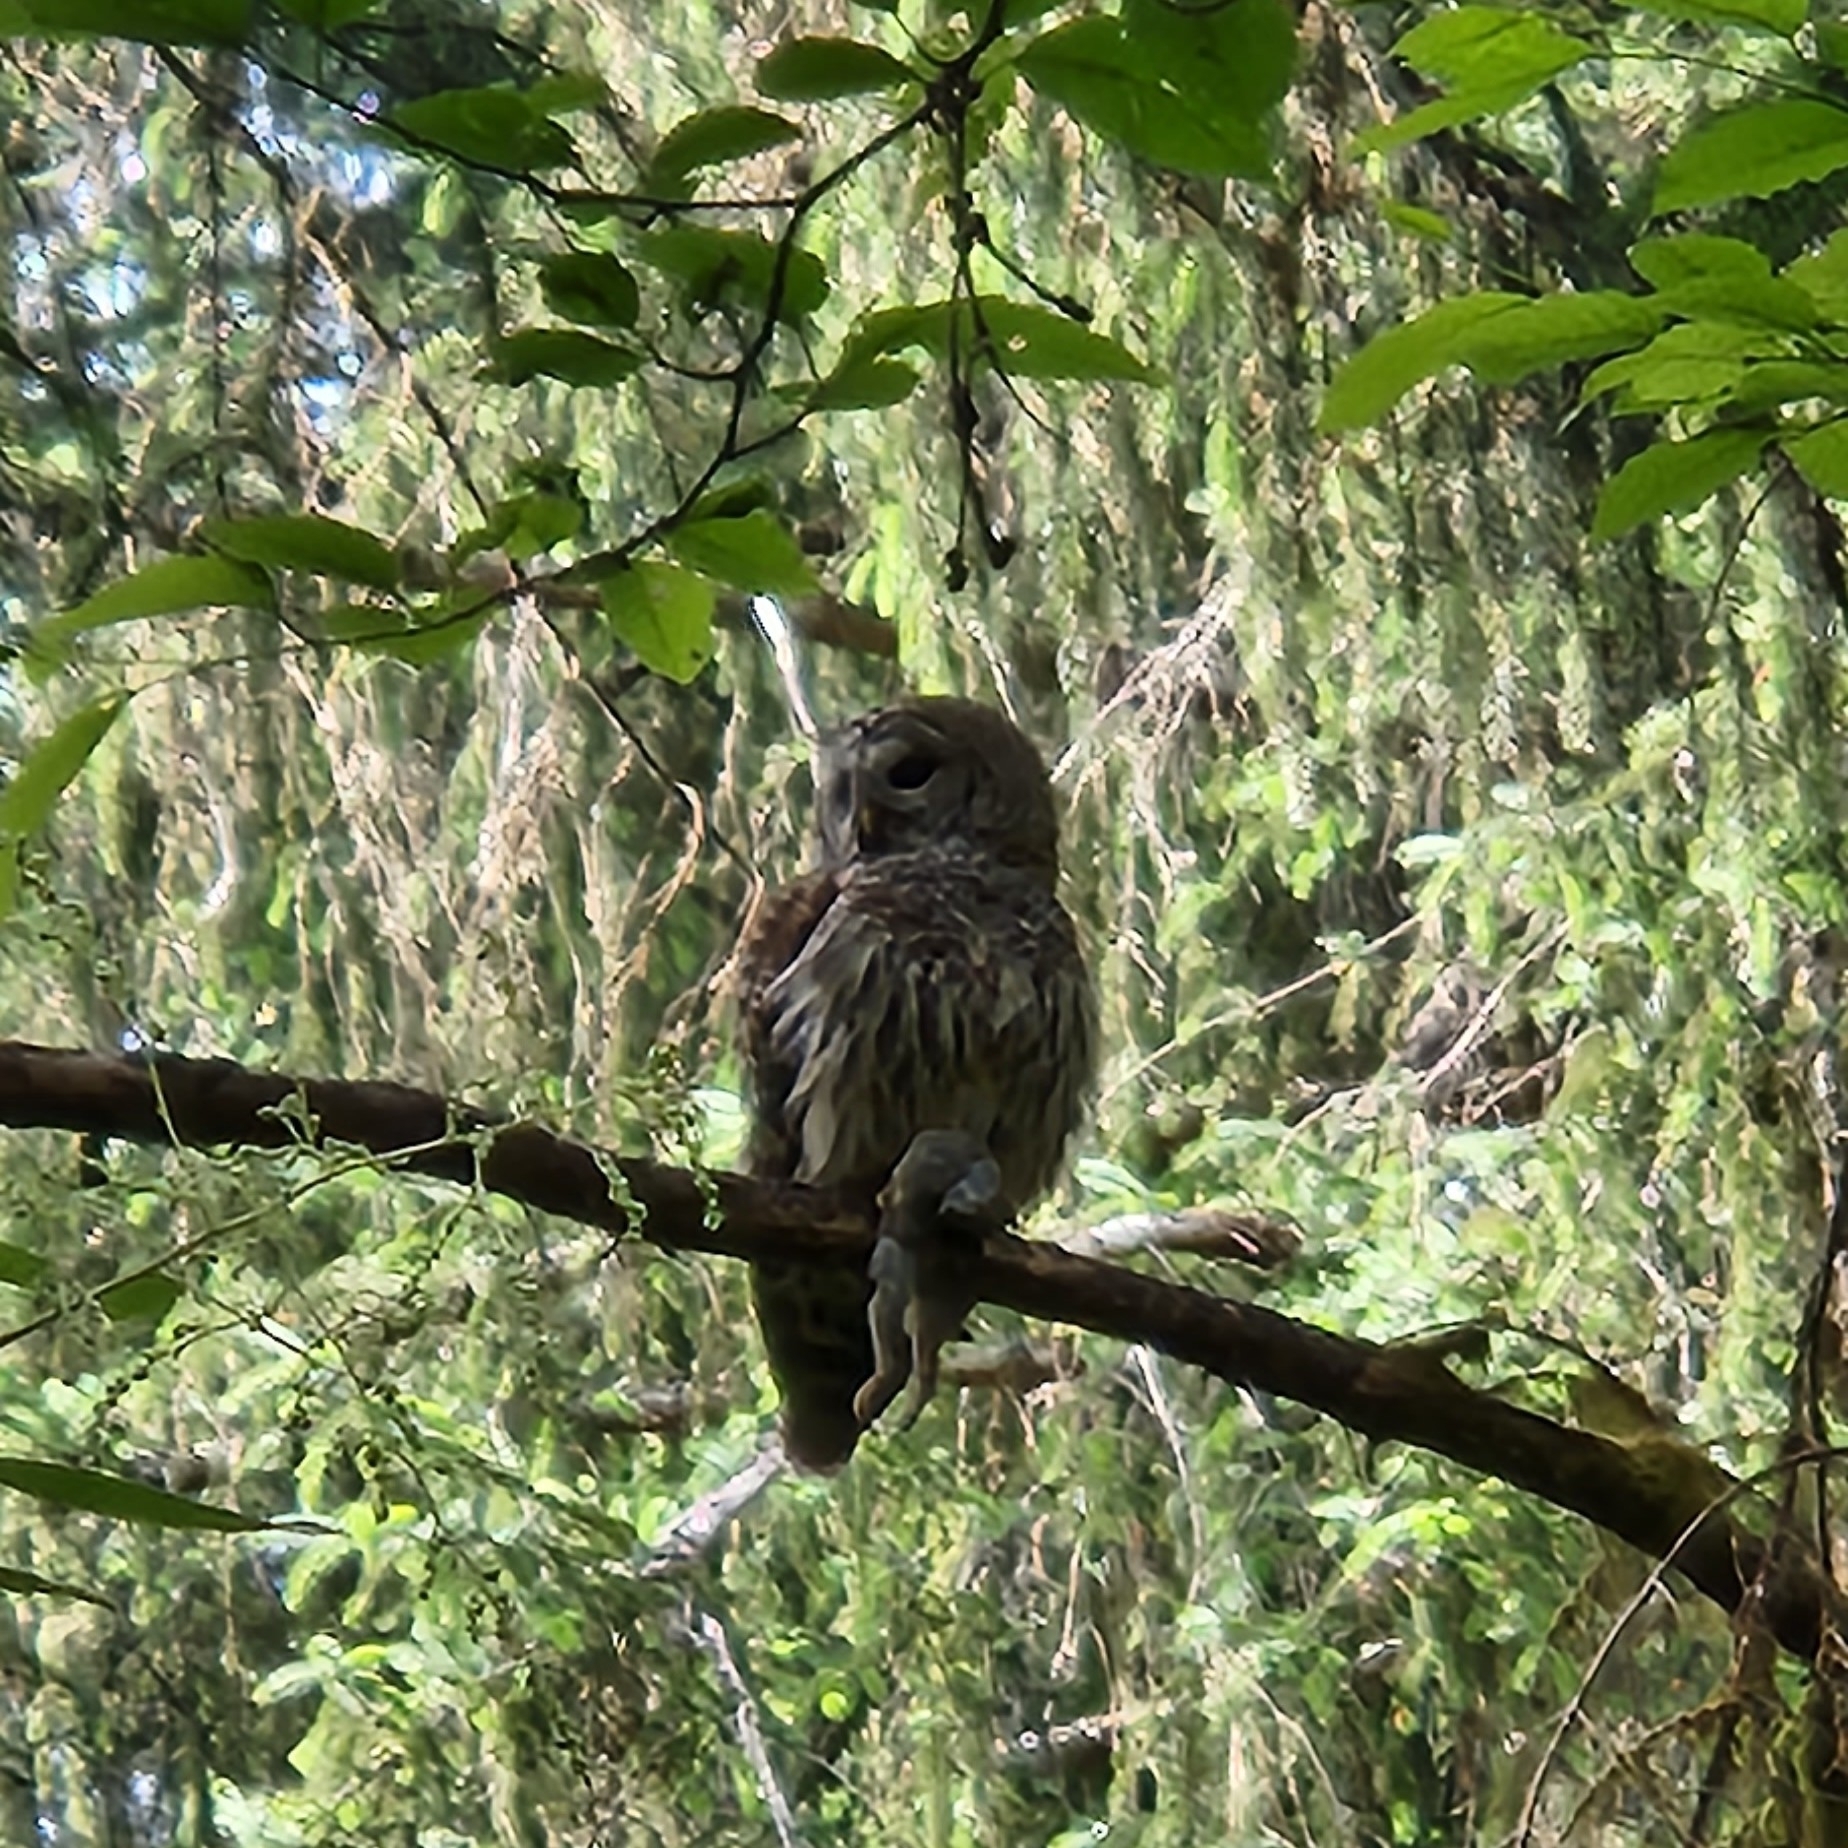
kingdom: Animalia
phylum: Chordata
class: Aves
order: Strigiformes
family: Strigidae
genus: Strix
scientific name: Strix varia
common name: Barred owl
